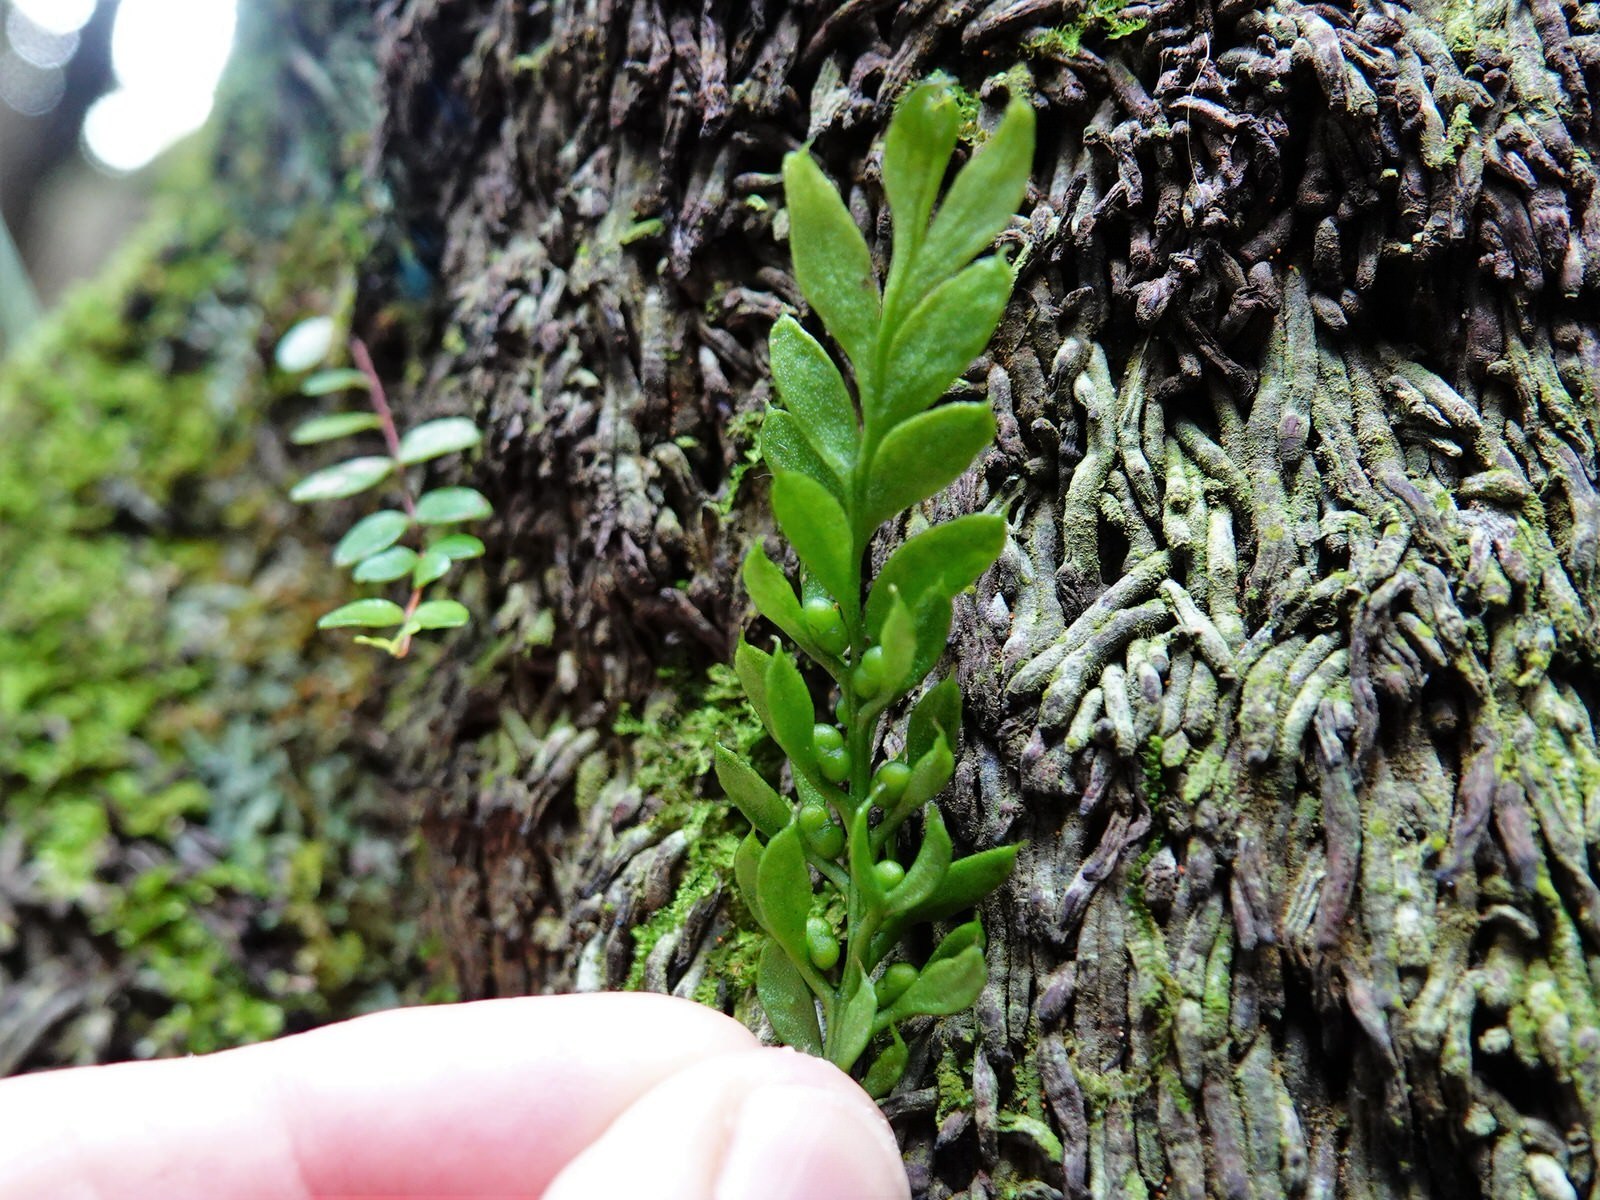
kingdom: Plantae
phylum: Tracheophyta
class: Polypodiopsida
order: Psilotales
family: Psilotaceae
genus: Tmesipteris
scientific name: Tmesipteris lanceolata
